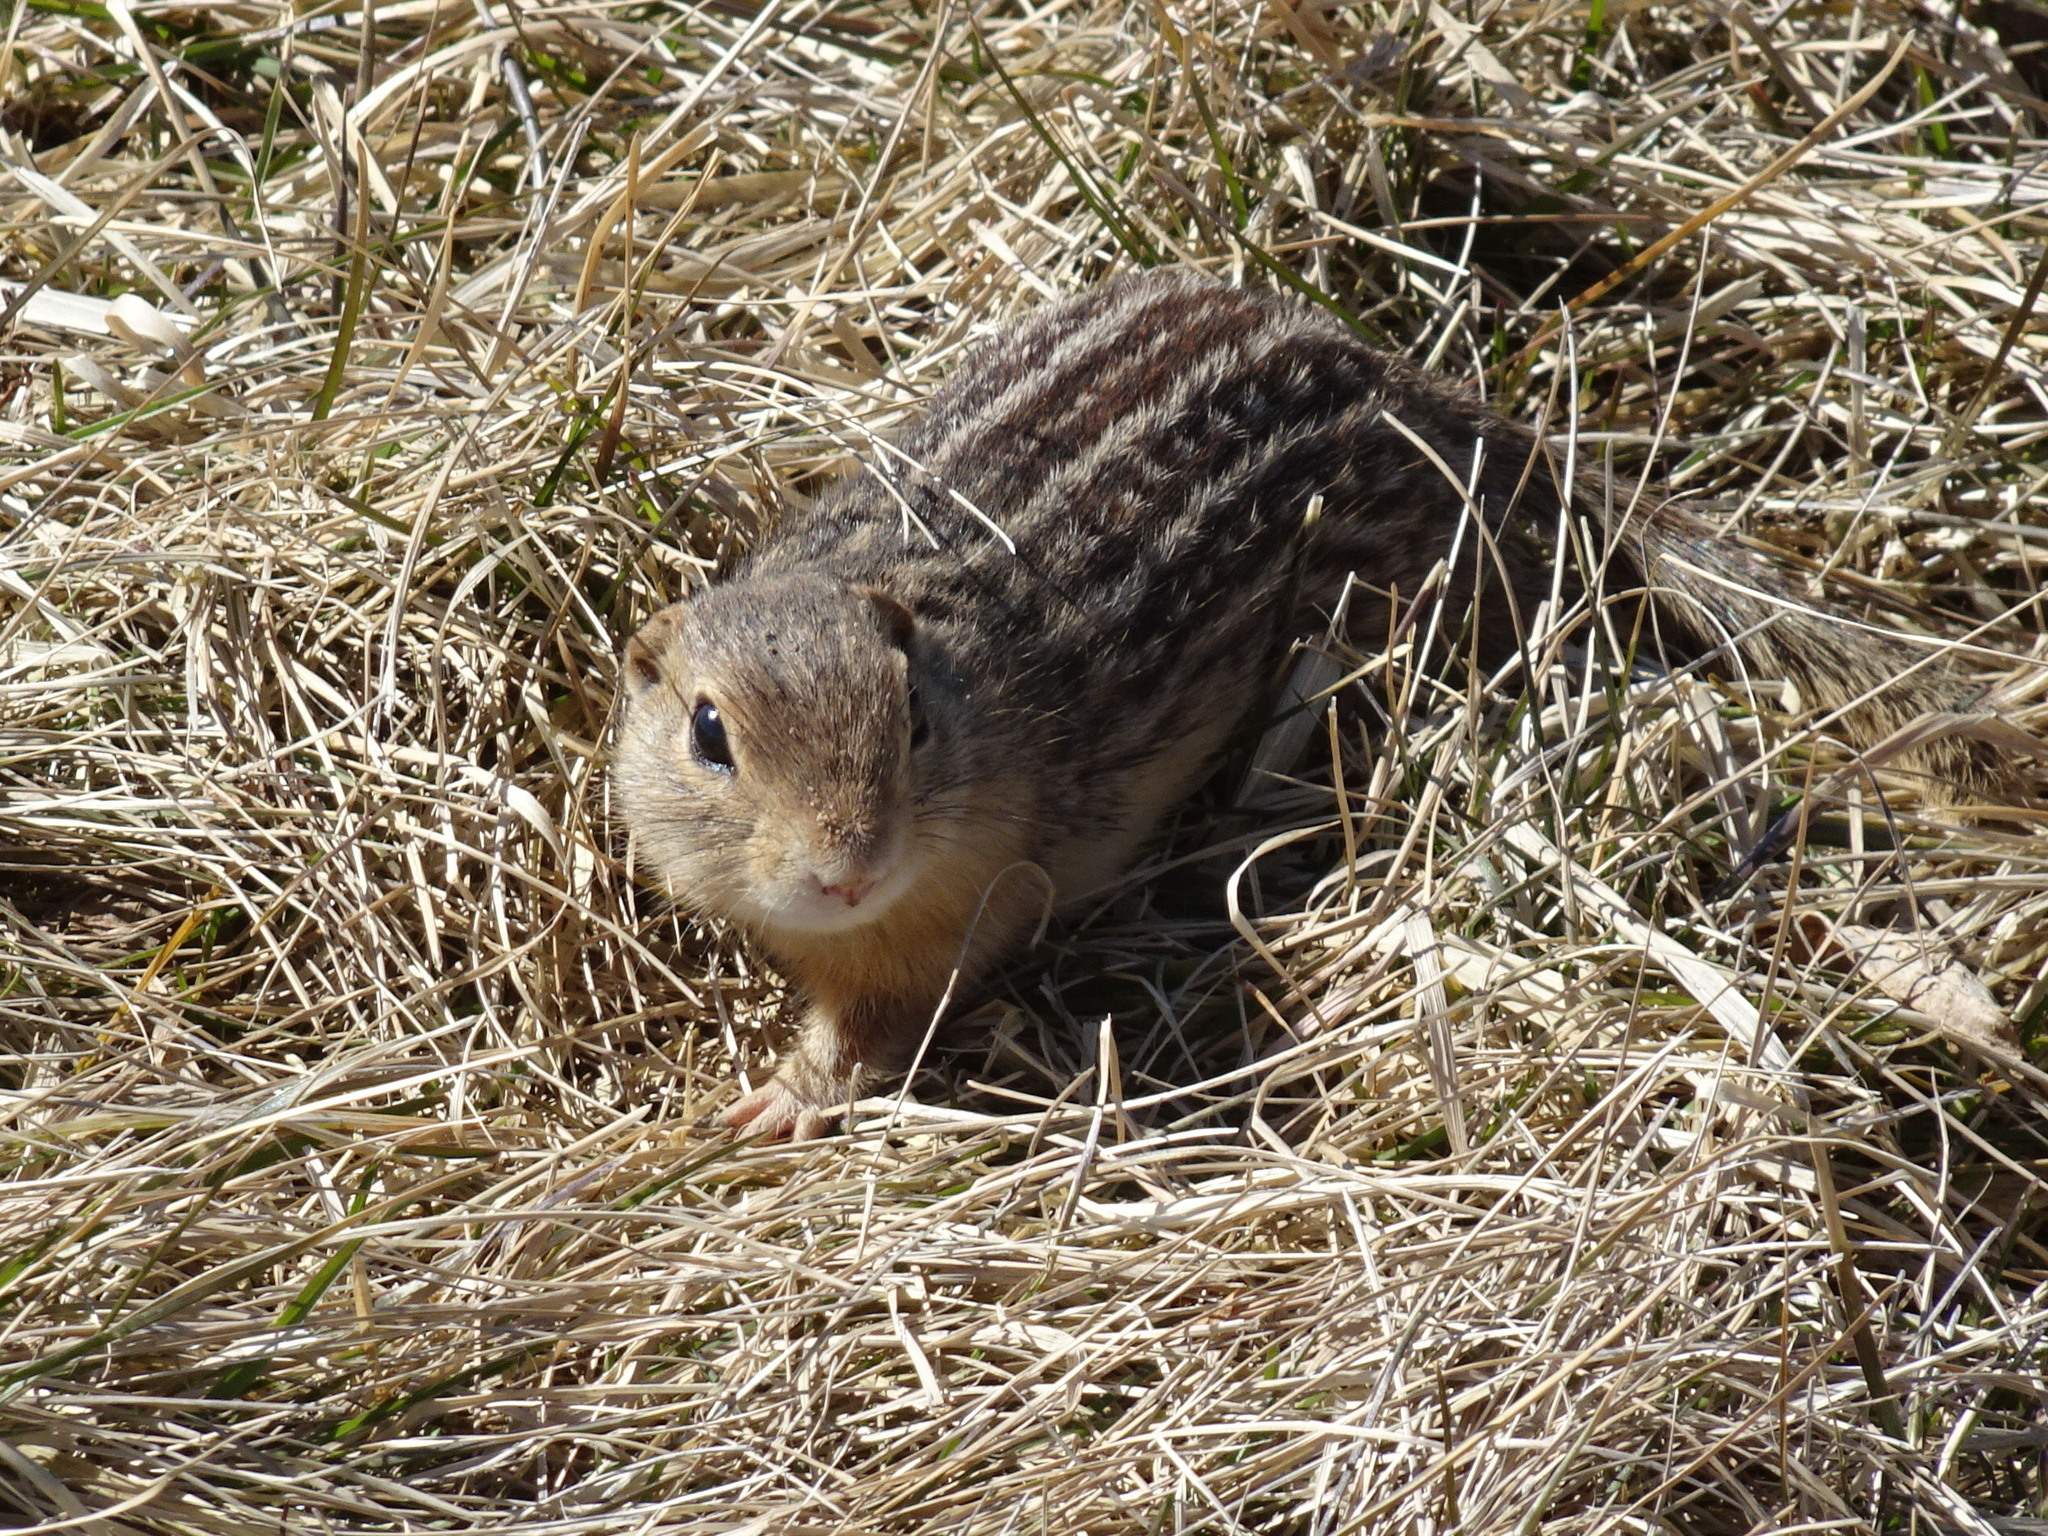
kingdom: Animalia
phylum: Chordata
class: Mammalia
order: Rodentia
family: Sciuridae
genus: Ictidomys
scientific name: Ictidomys tridecemlineatus
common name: Thirteen-lined ground squirrel
